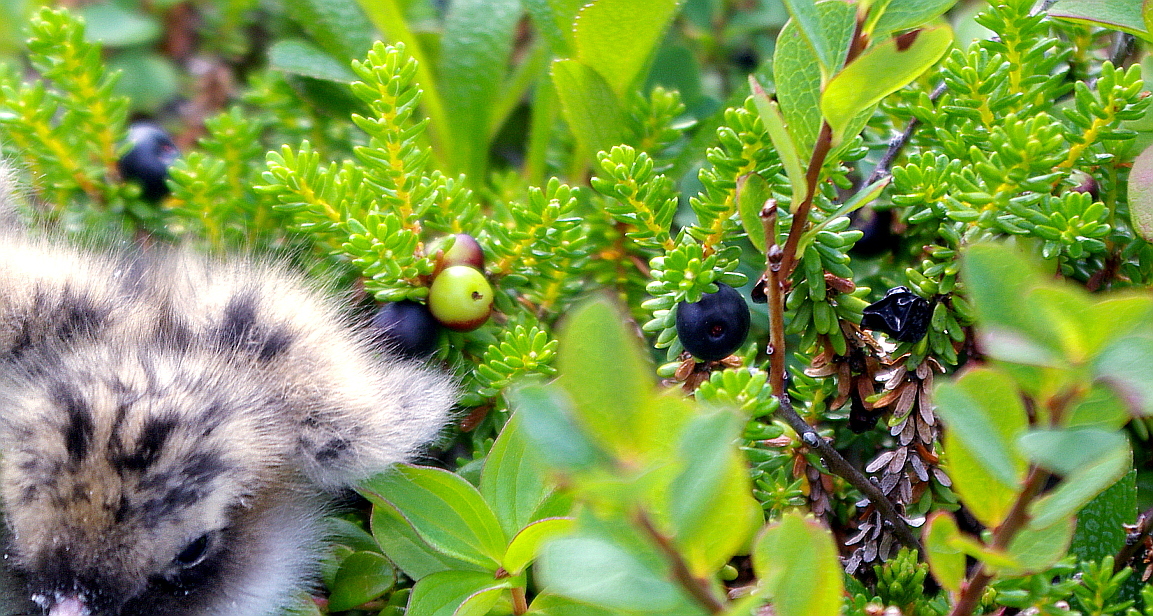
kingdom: Plantae
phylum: Tracheophyta
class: Magnoliopsida
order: Ericales
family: Ericaceae
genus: Empetrum
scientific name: Empetrum nigrum
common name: Black crowberry
